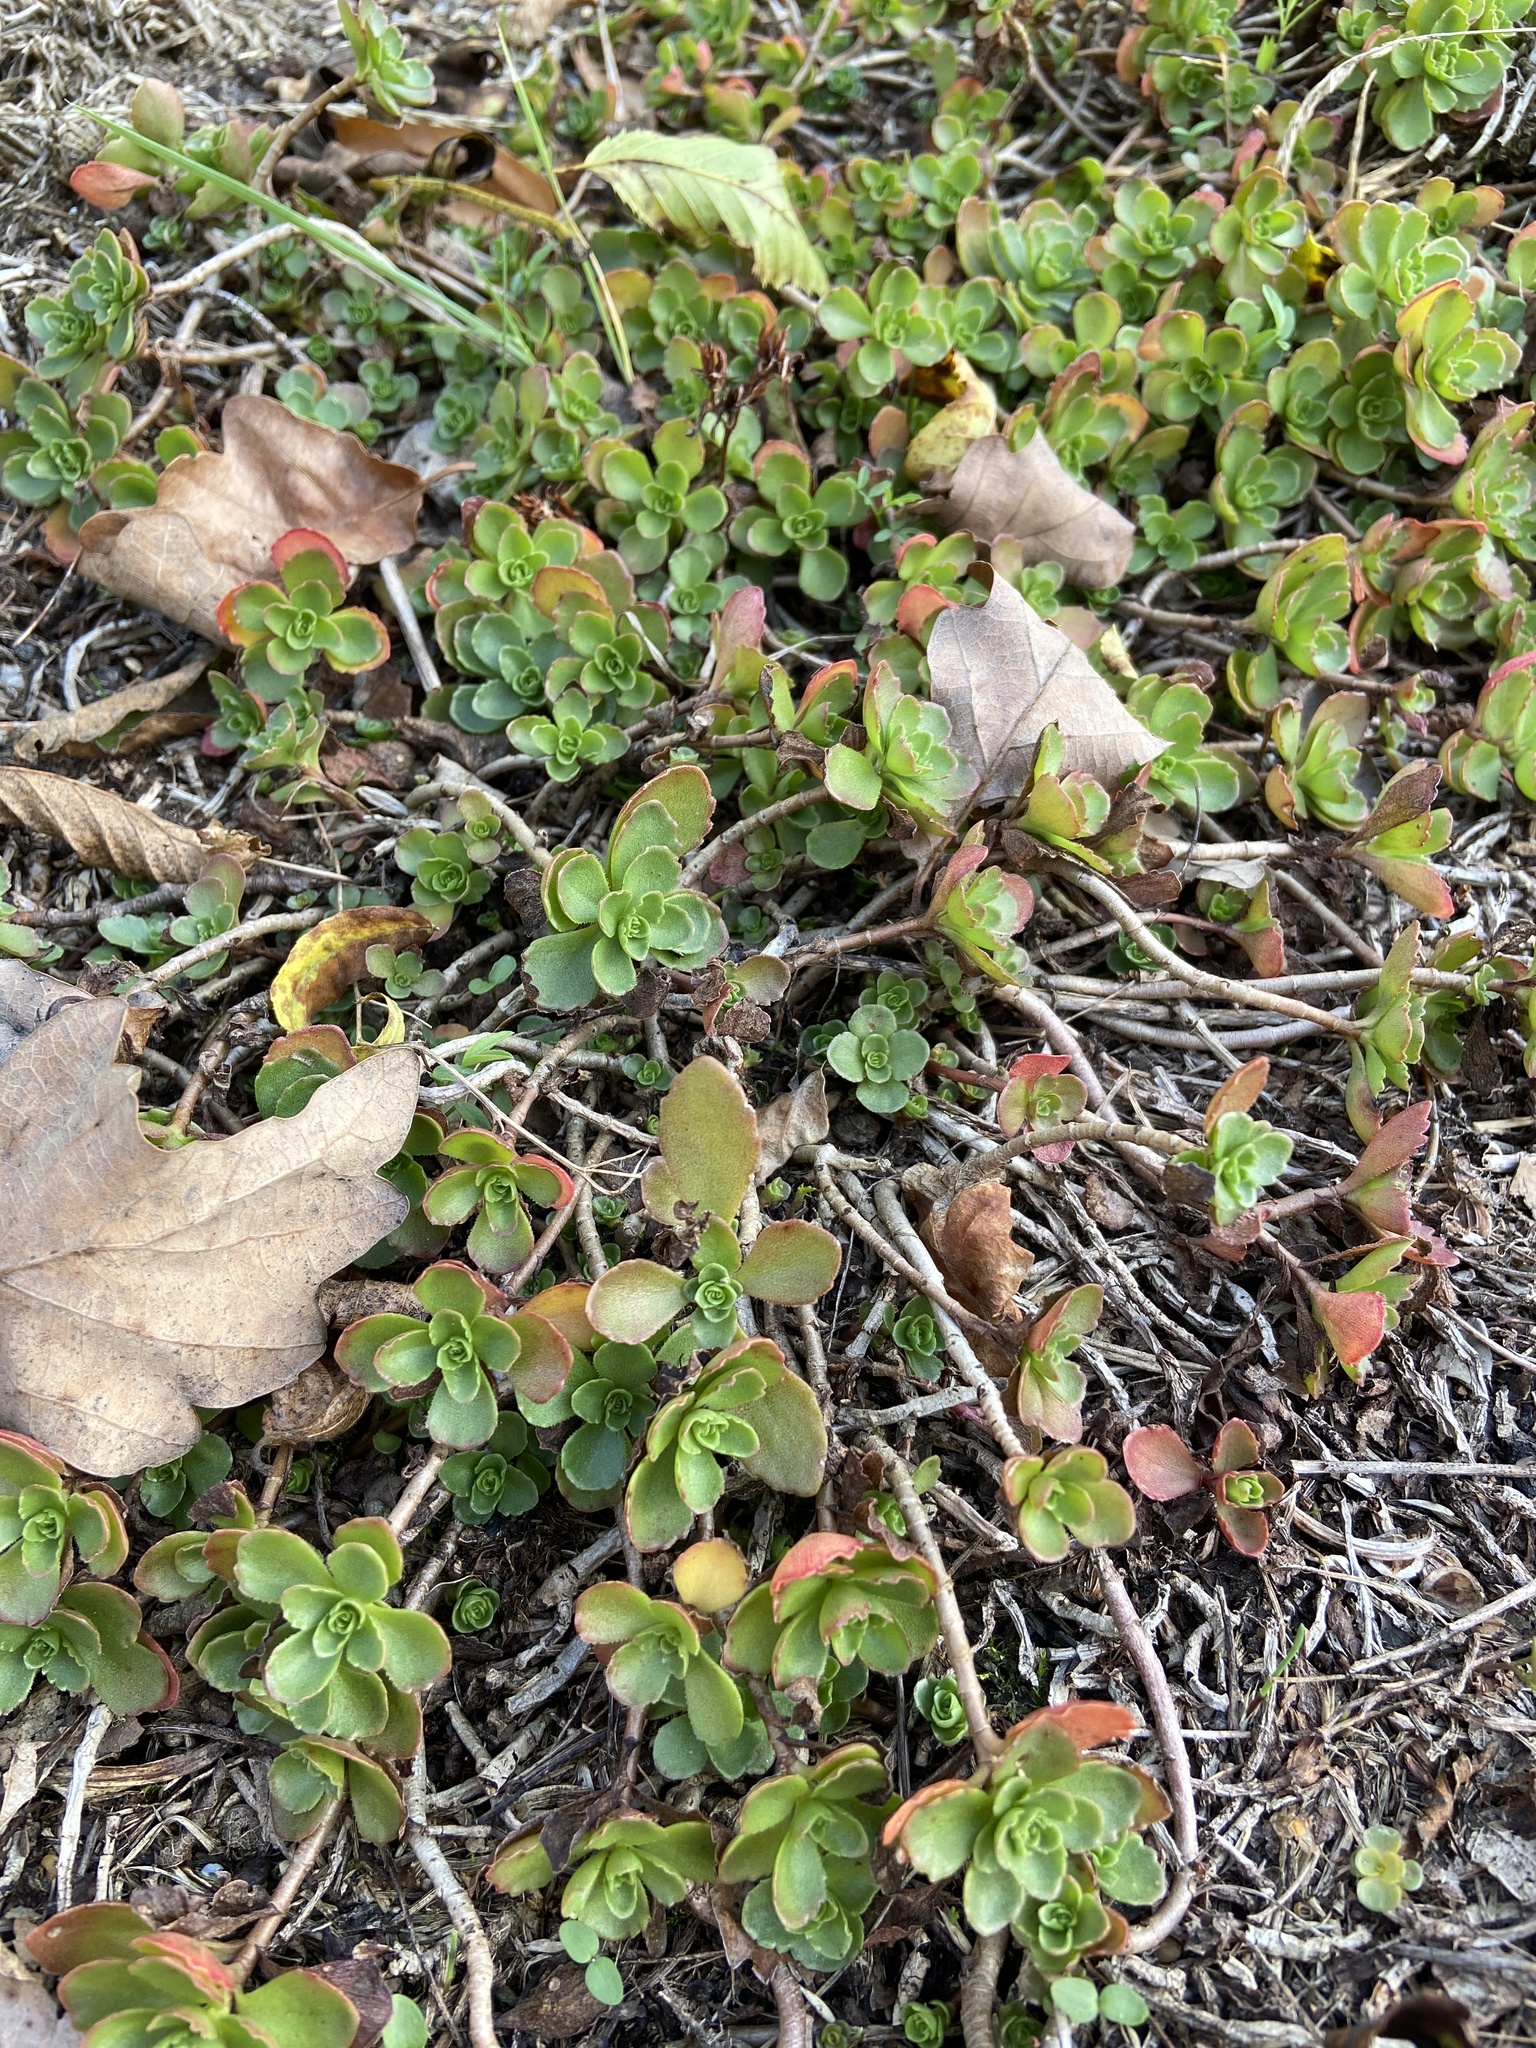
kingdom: Plantae
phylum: Tracheophyta
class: Magnoliopsida
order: Saxifragales
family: Crassulaceae
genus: Phedimus
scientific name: Phedimus spurius
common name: Caucasian stonecrop
